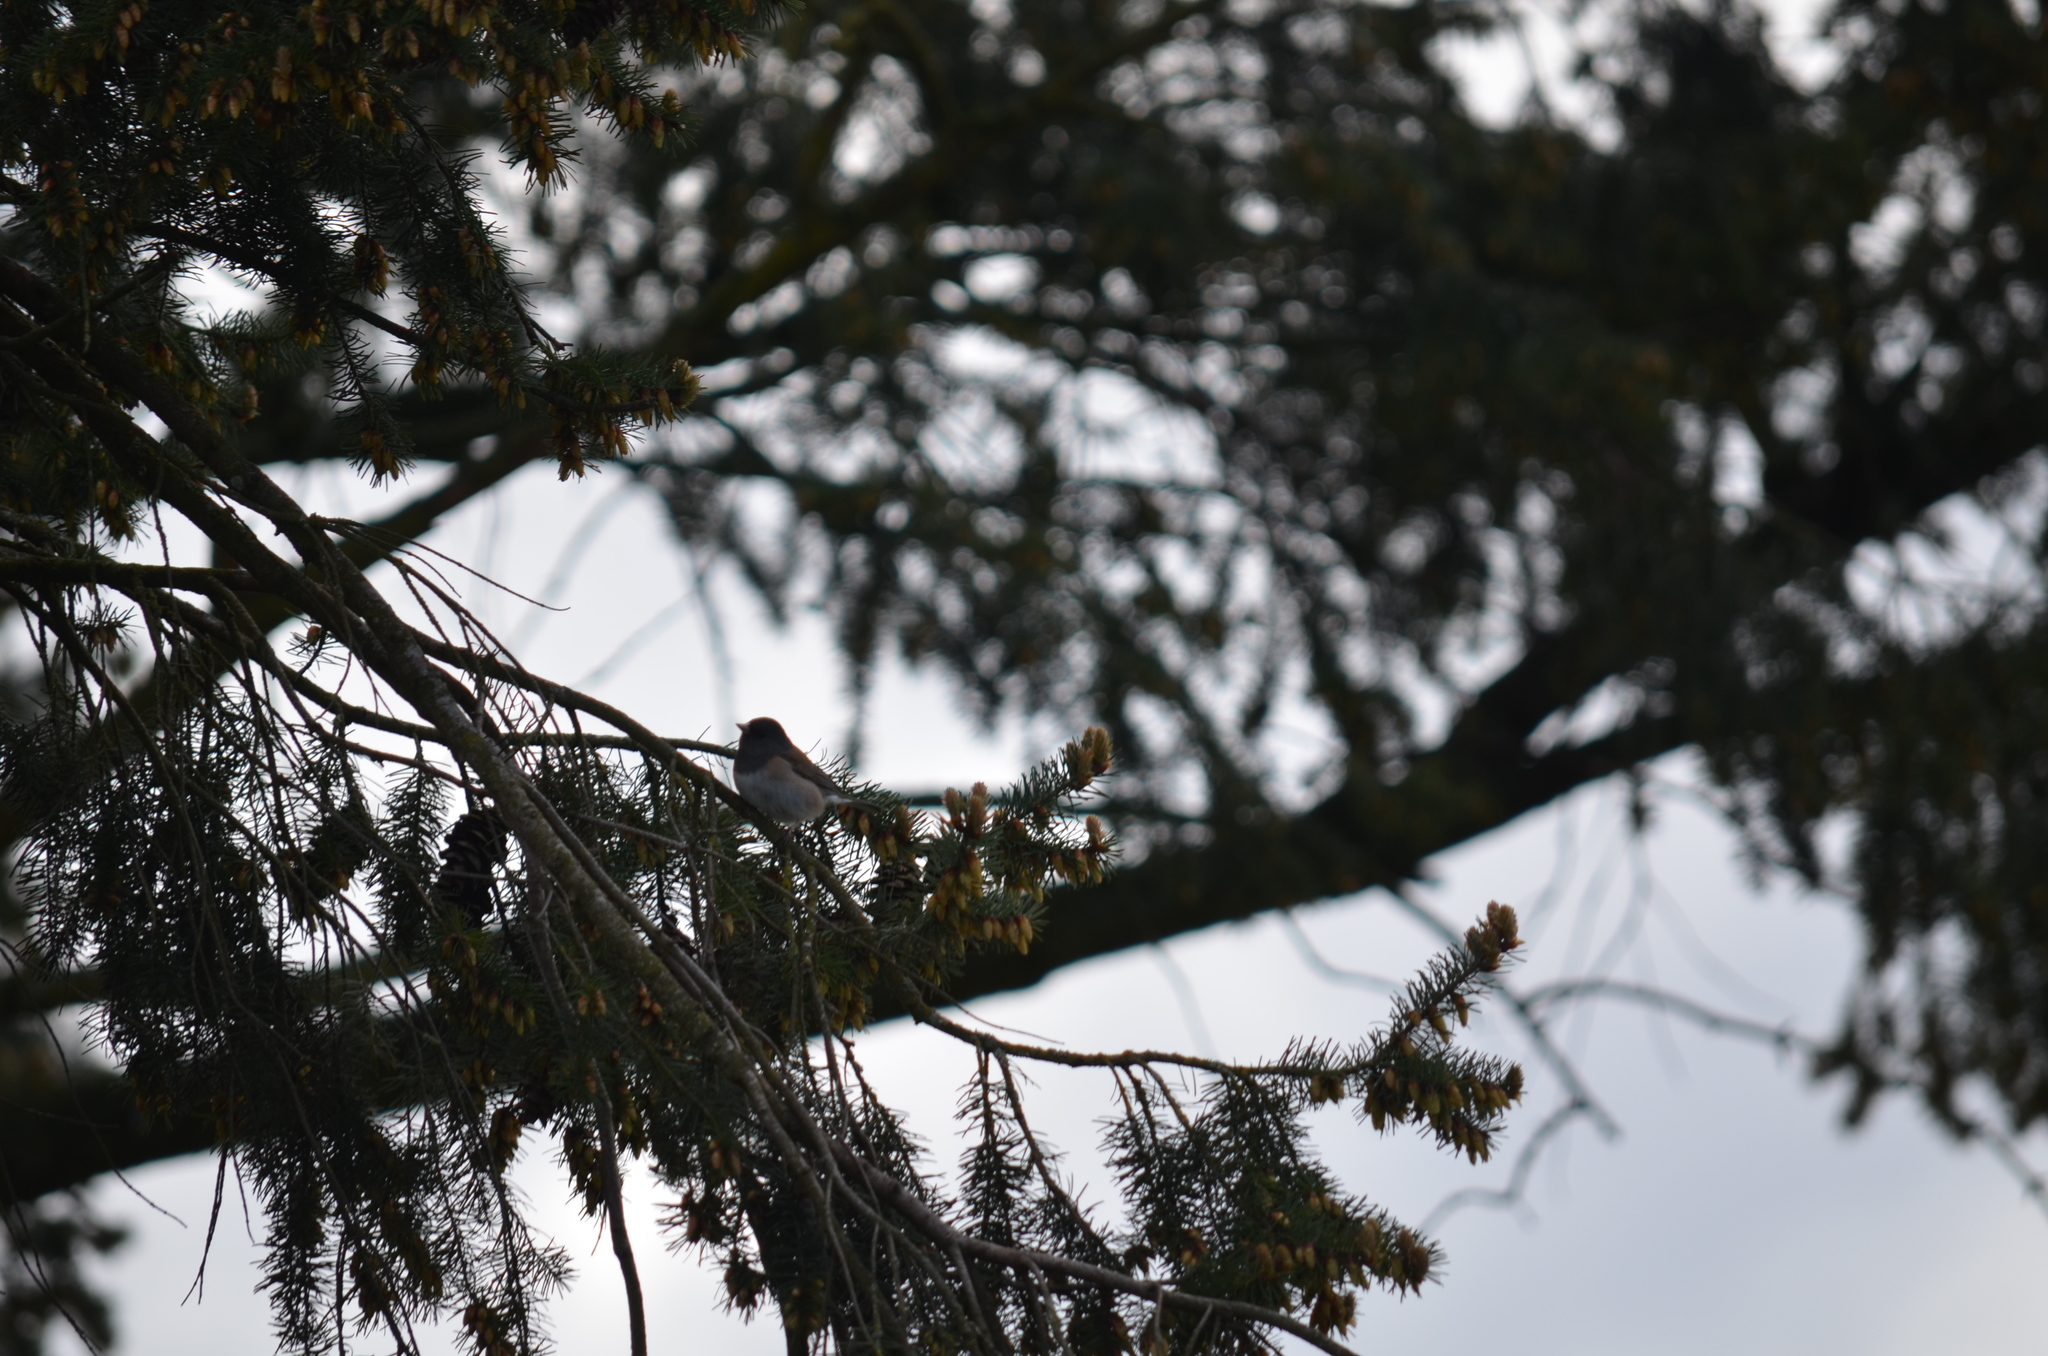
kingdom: Animalia
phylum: Chordata
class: Aves
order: Passeriformes
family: Passerellidae
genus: Junco
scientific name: Junco hyemalis
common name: Dark-eyed junco
